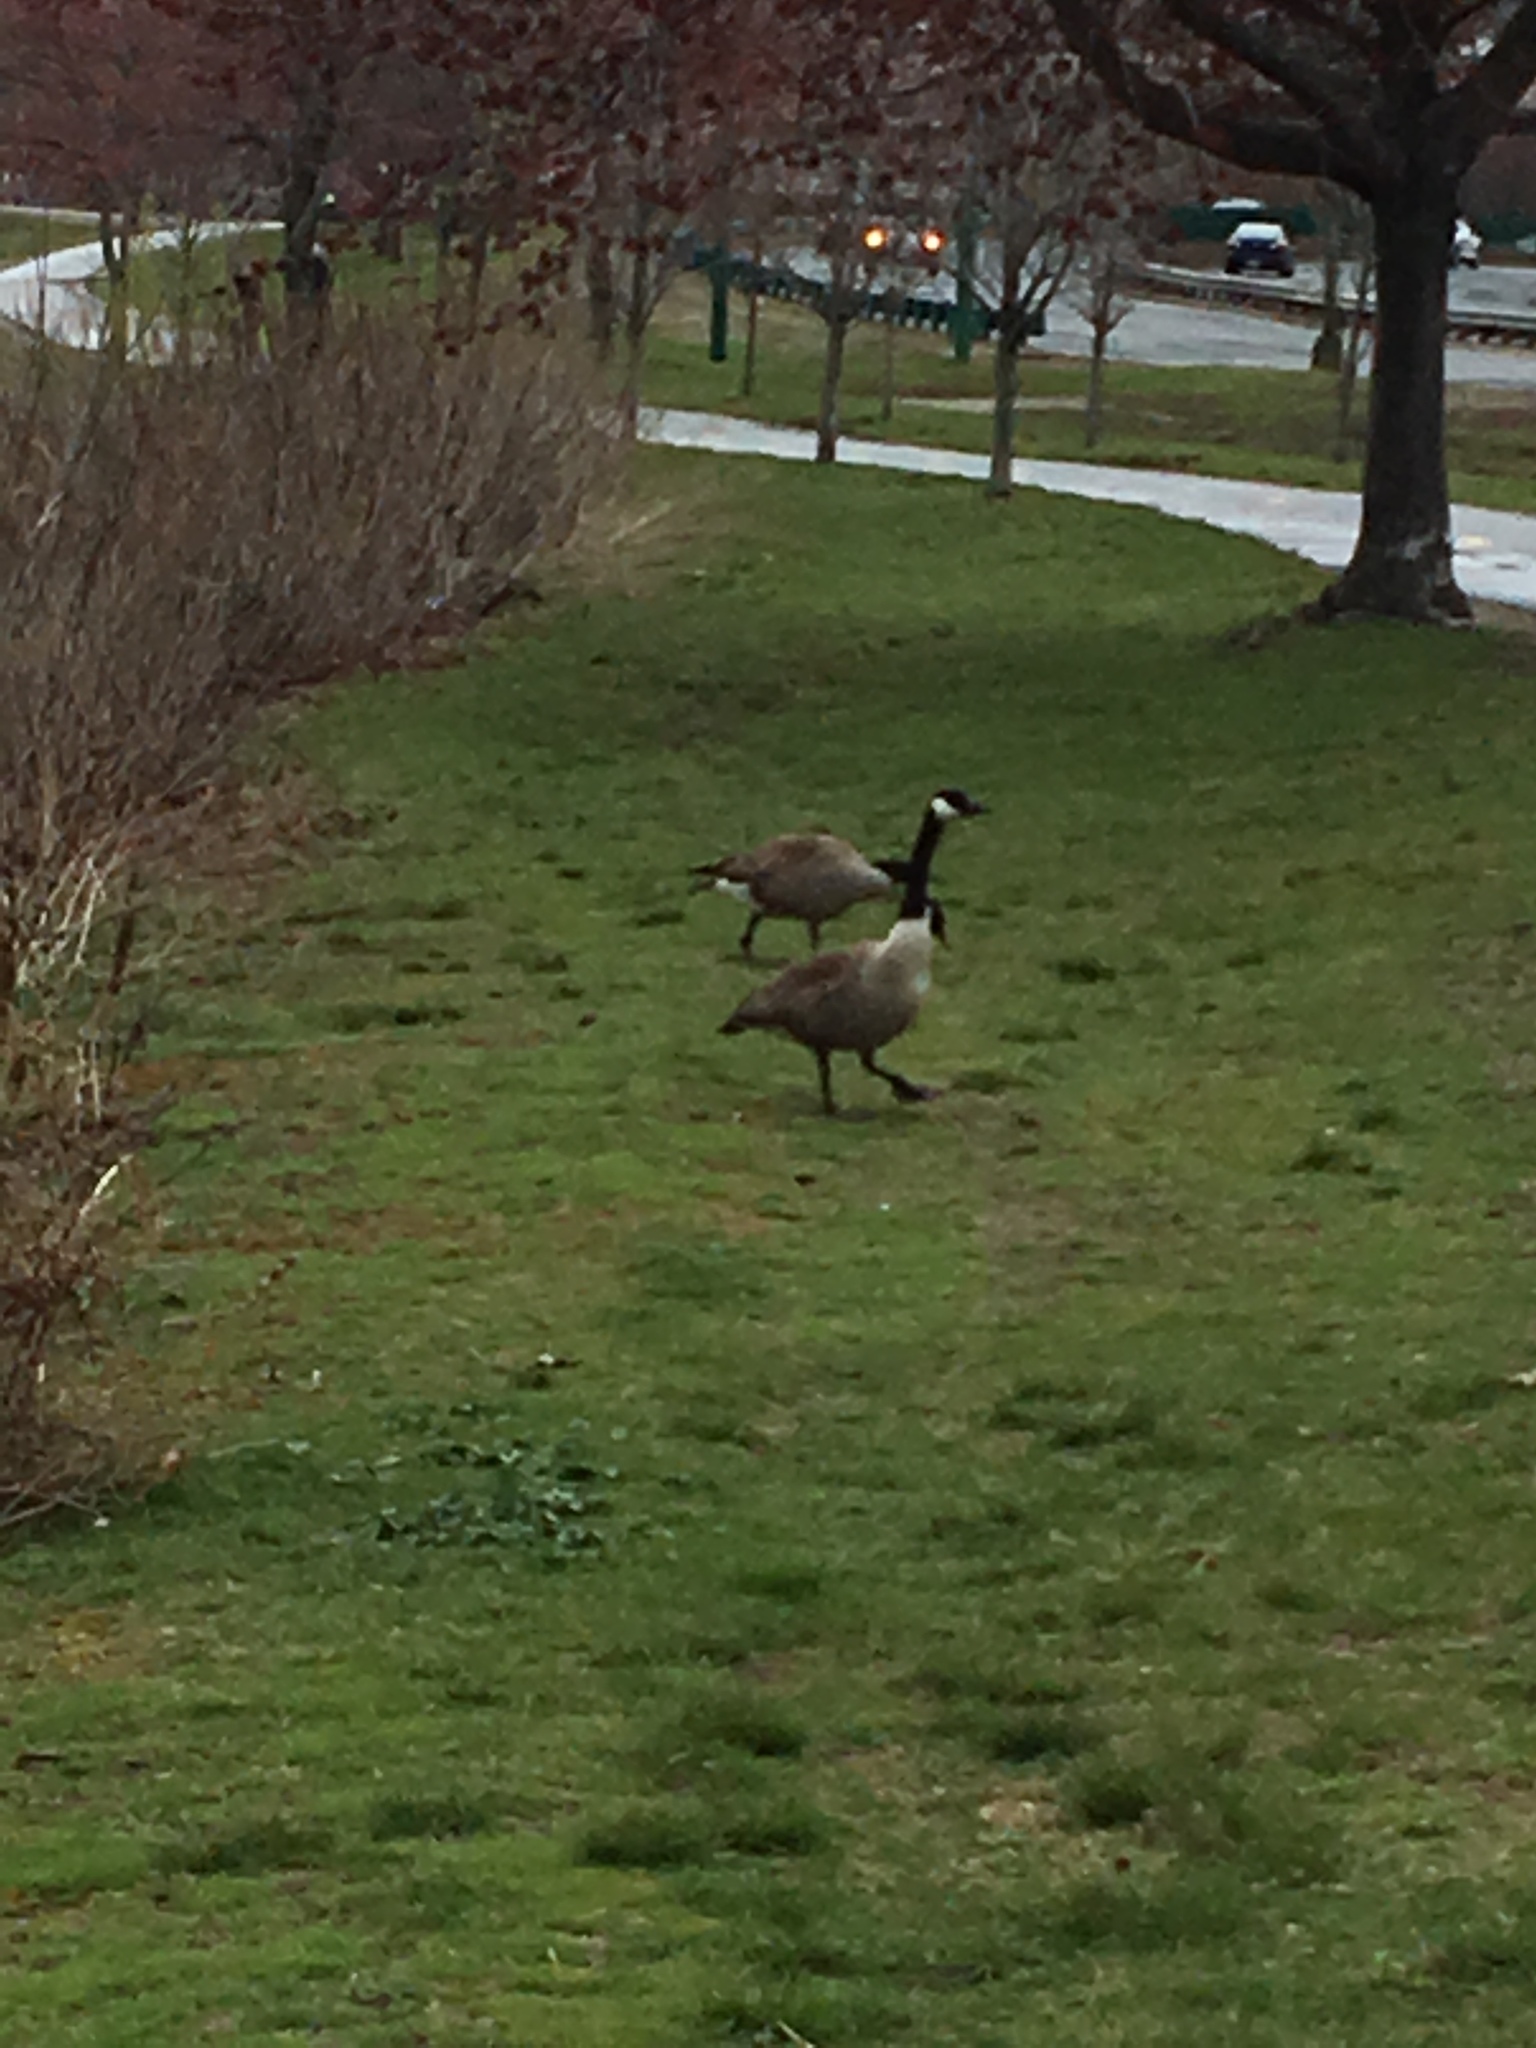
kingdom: Animalia
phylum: Chordata
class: Aves
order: Anseriformes
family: Anatidae
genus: Branta
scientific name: Branta canadensis
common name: Canada goose
